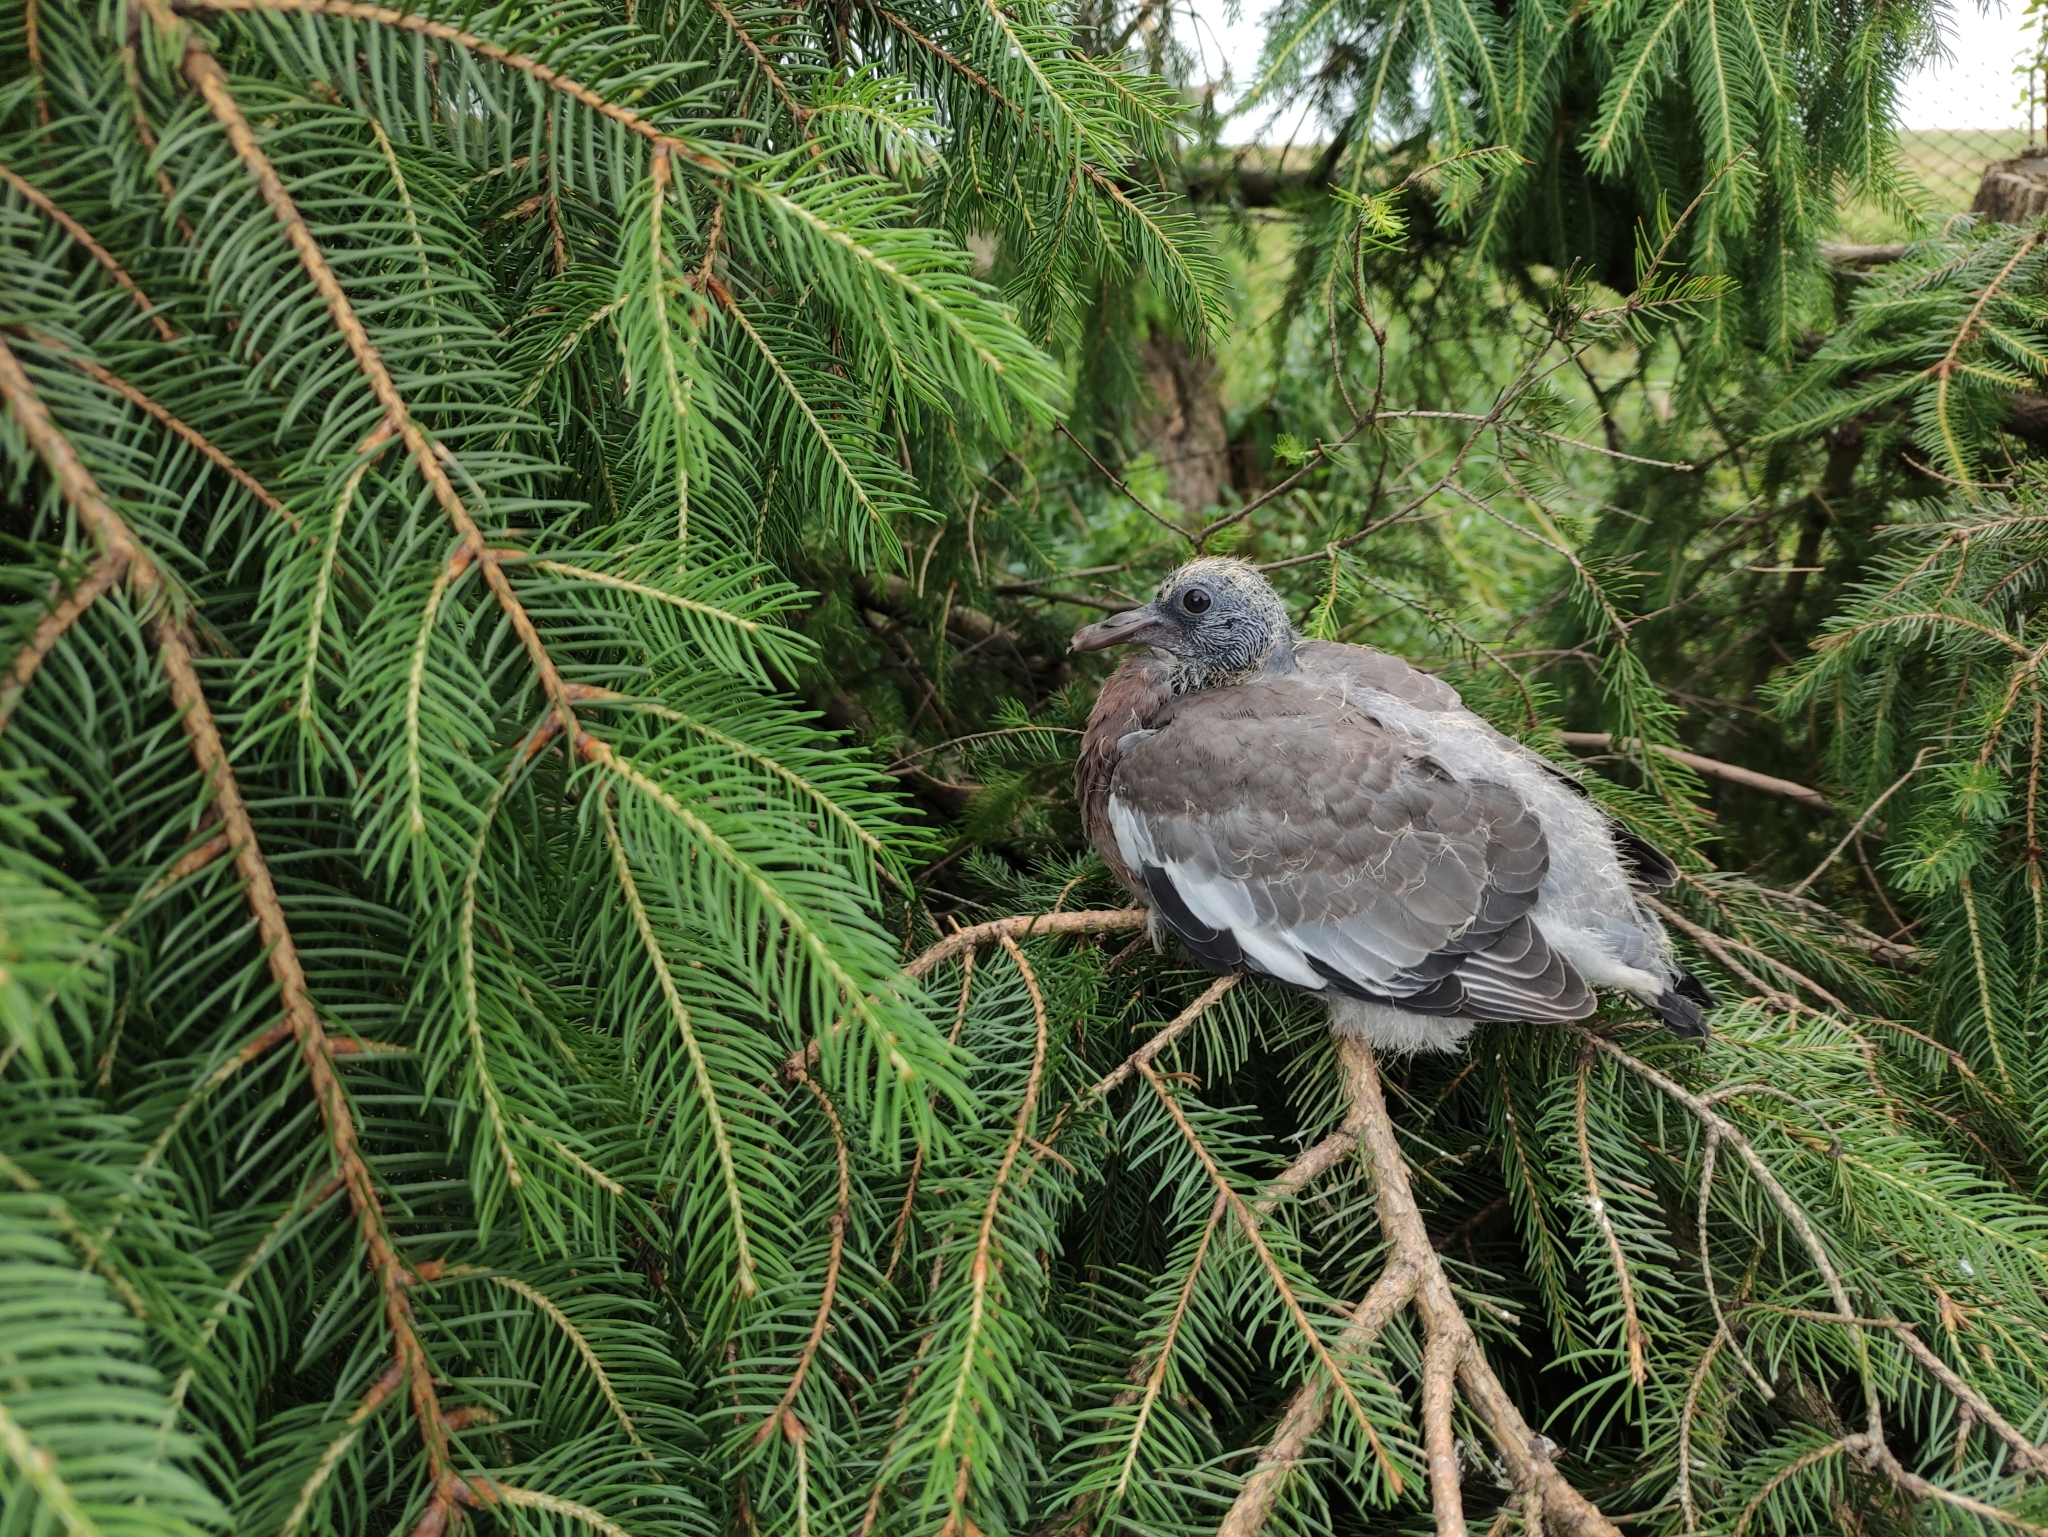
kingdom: Animalia
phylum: Chordata
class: Aves
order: Columbiformes
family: Columbidae
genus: Columba
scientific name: Columba palumbus
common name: Common wood pigeon
